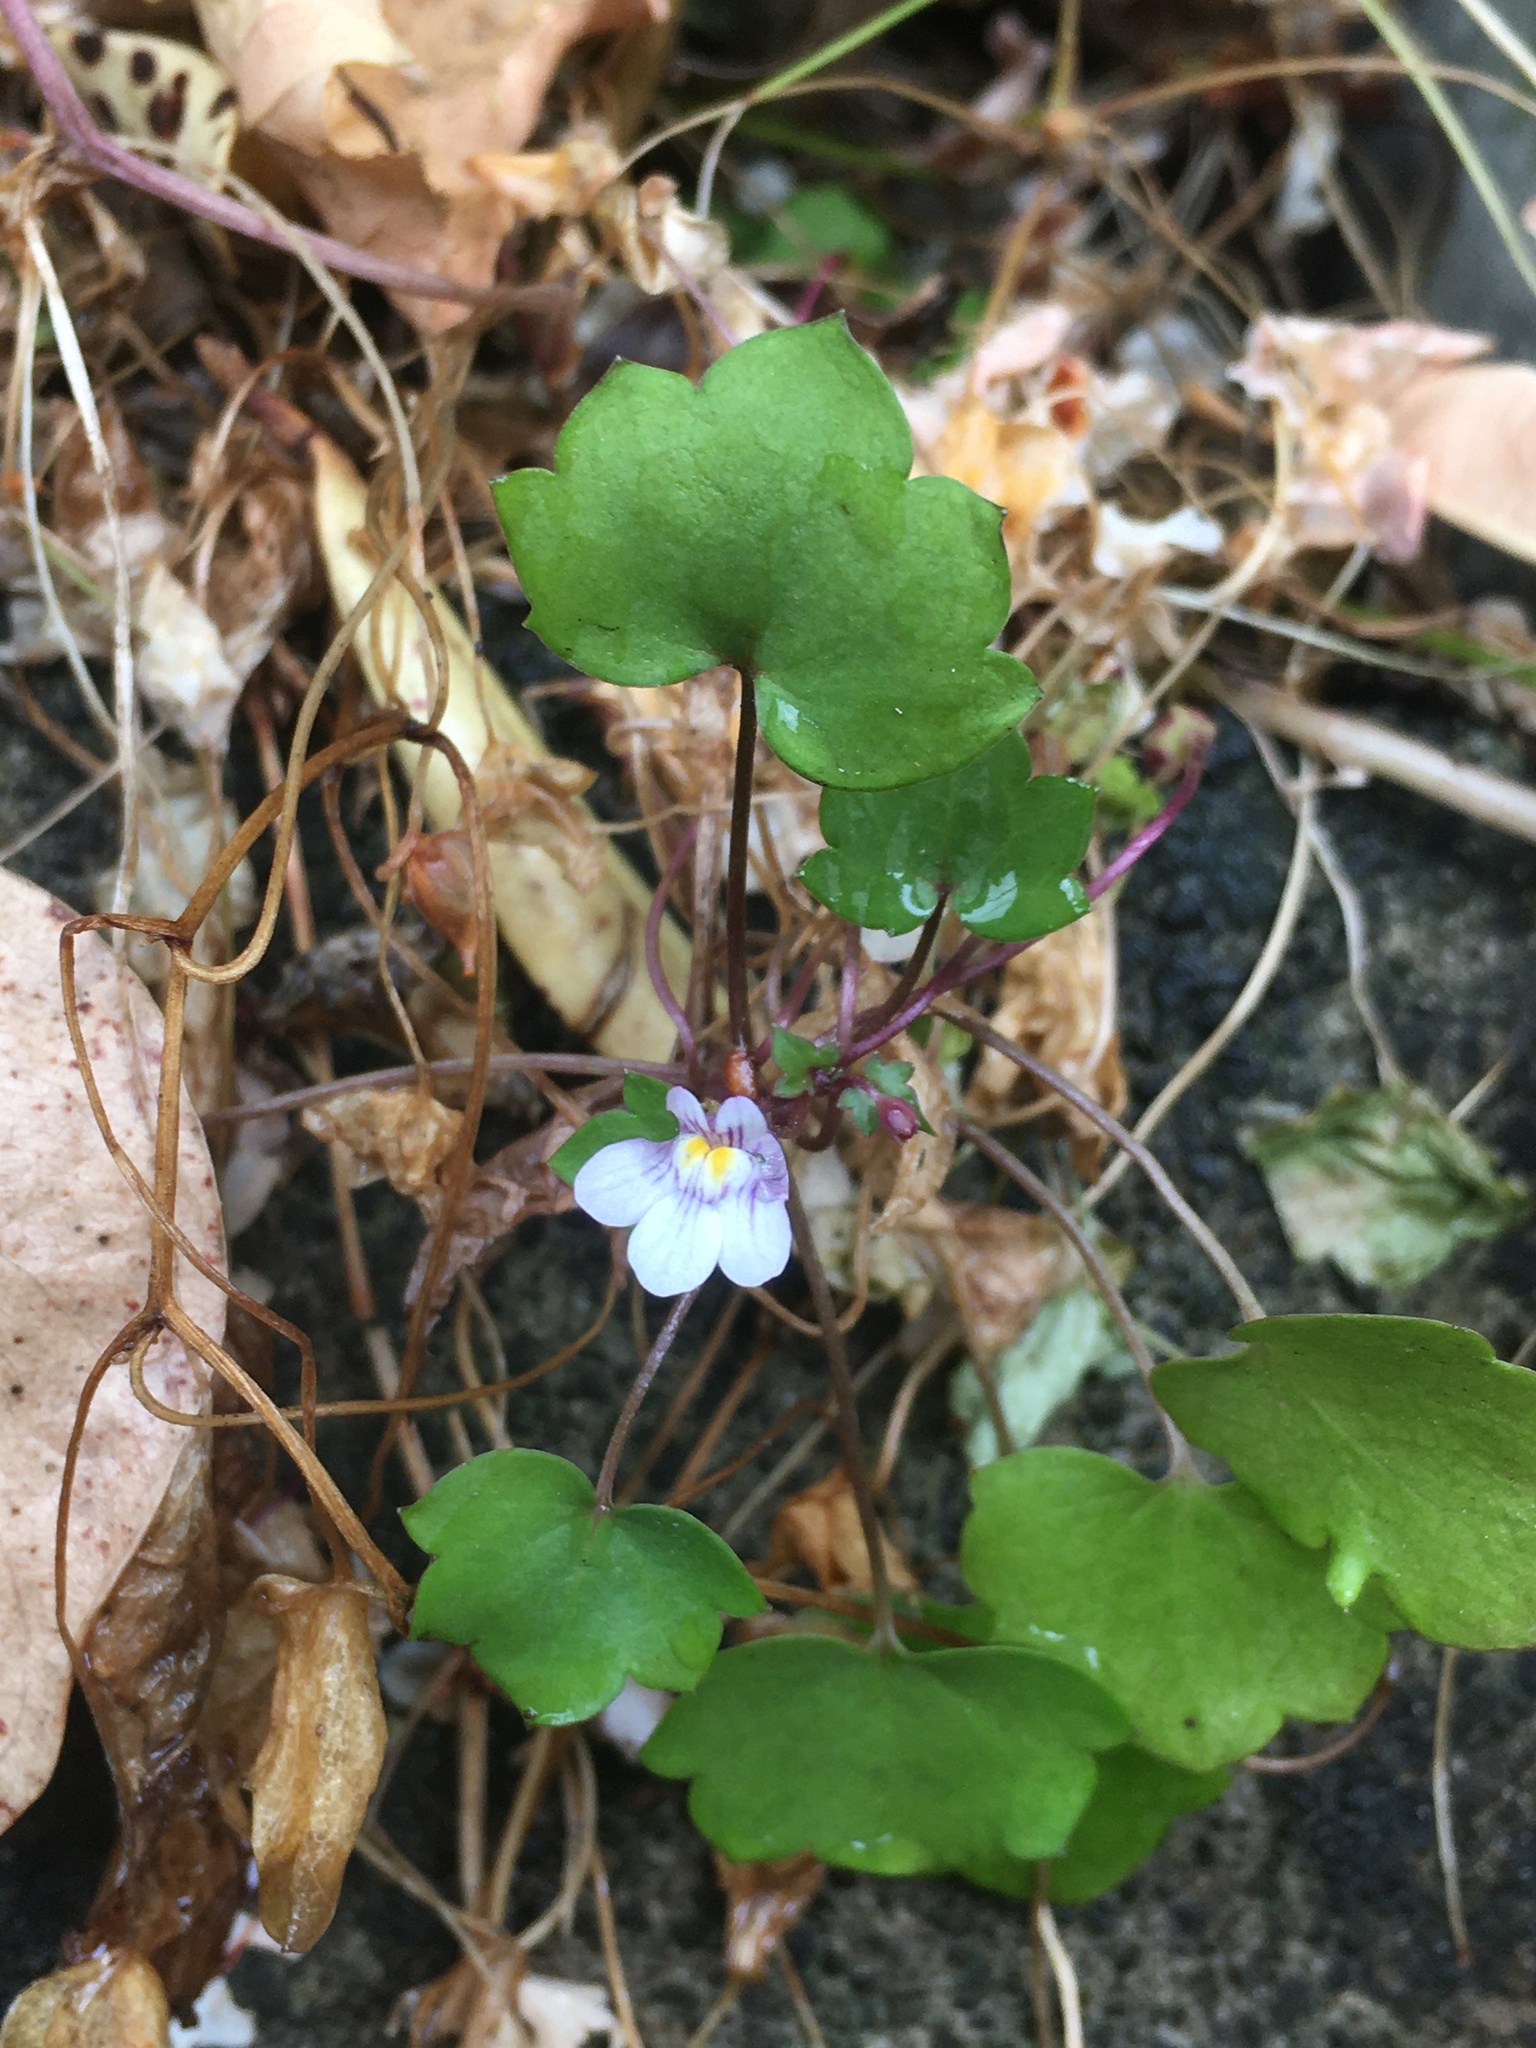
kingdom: Plantae
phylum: Tracheophyta
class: Magnoliopsida
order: Lamiales
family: Plantaginaceae
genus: Cymbalaria
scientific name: Cymbalaria muralis
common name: Ivy-leaved toadflax
